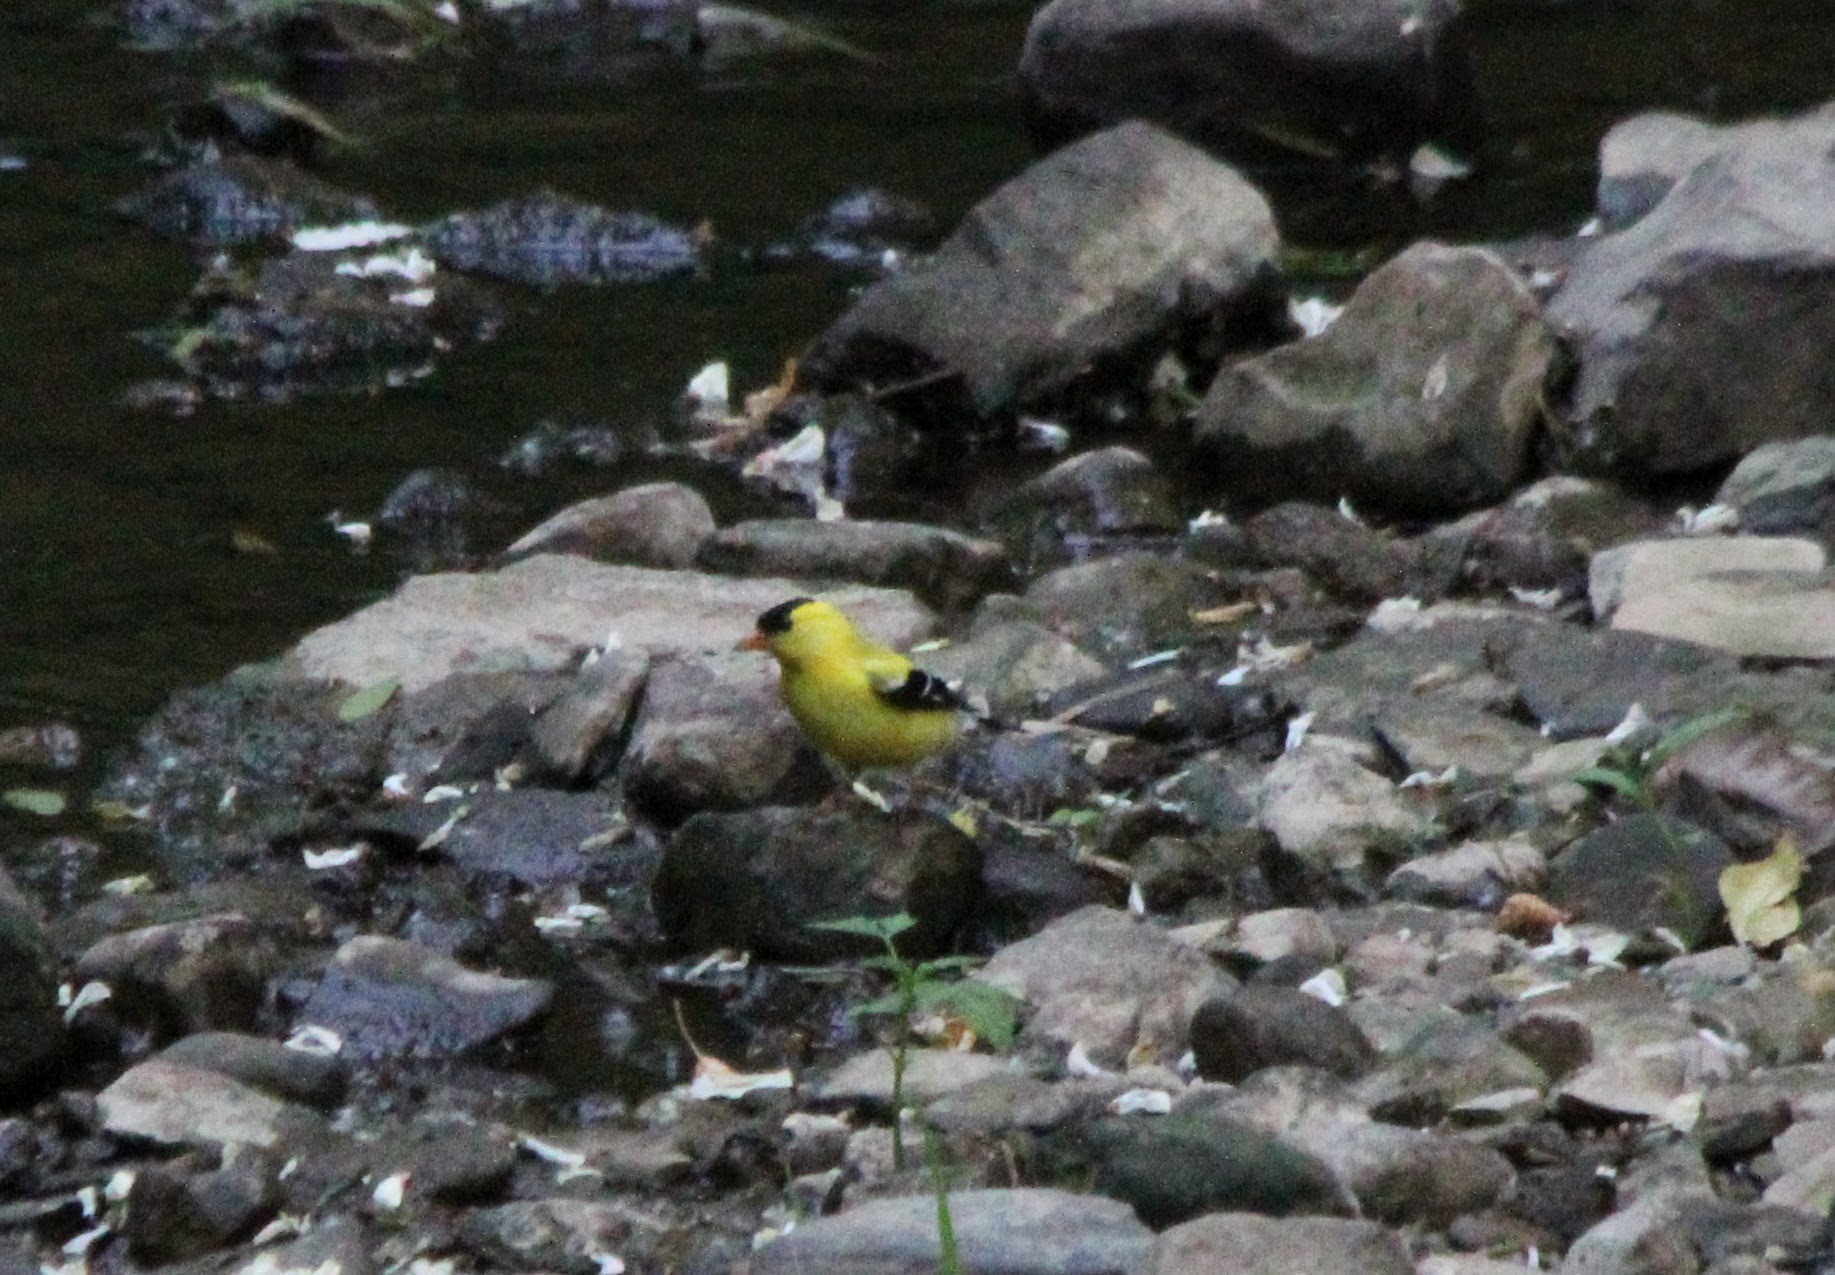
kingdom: Animalia
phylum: Chordata
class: Aves
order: Passeriformes
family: Fringillidae
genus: Spinus
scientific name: Spinus tristis
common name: American goldfinch
